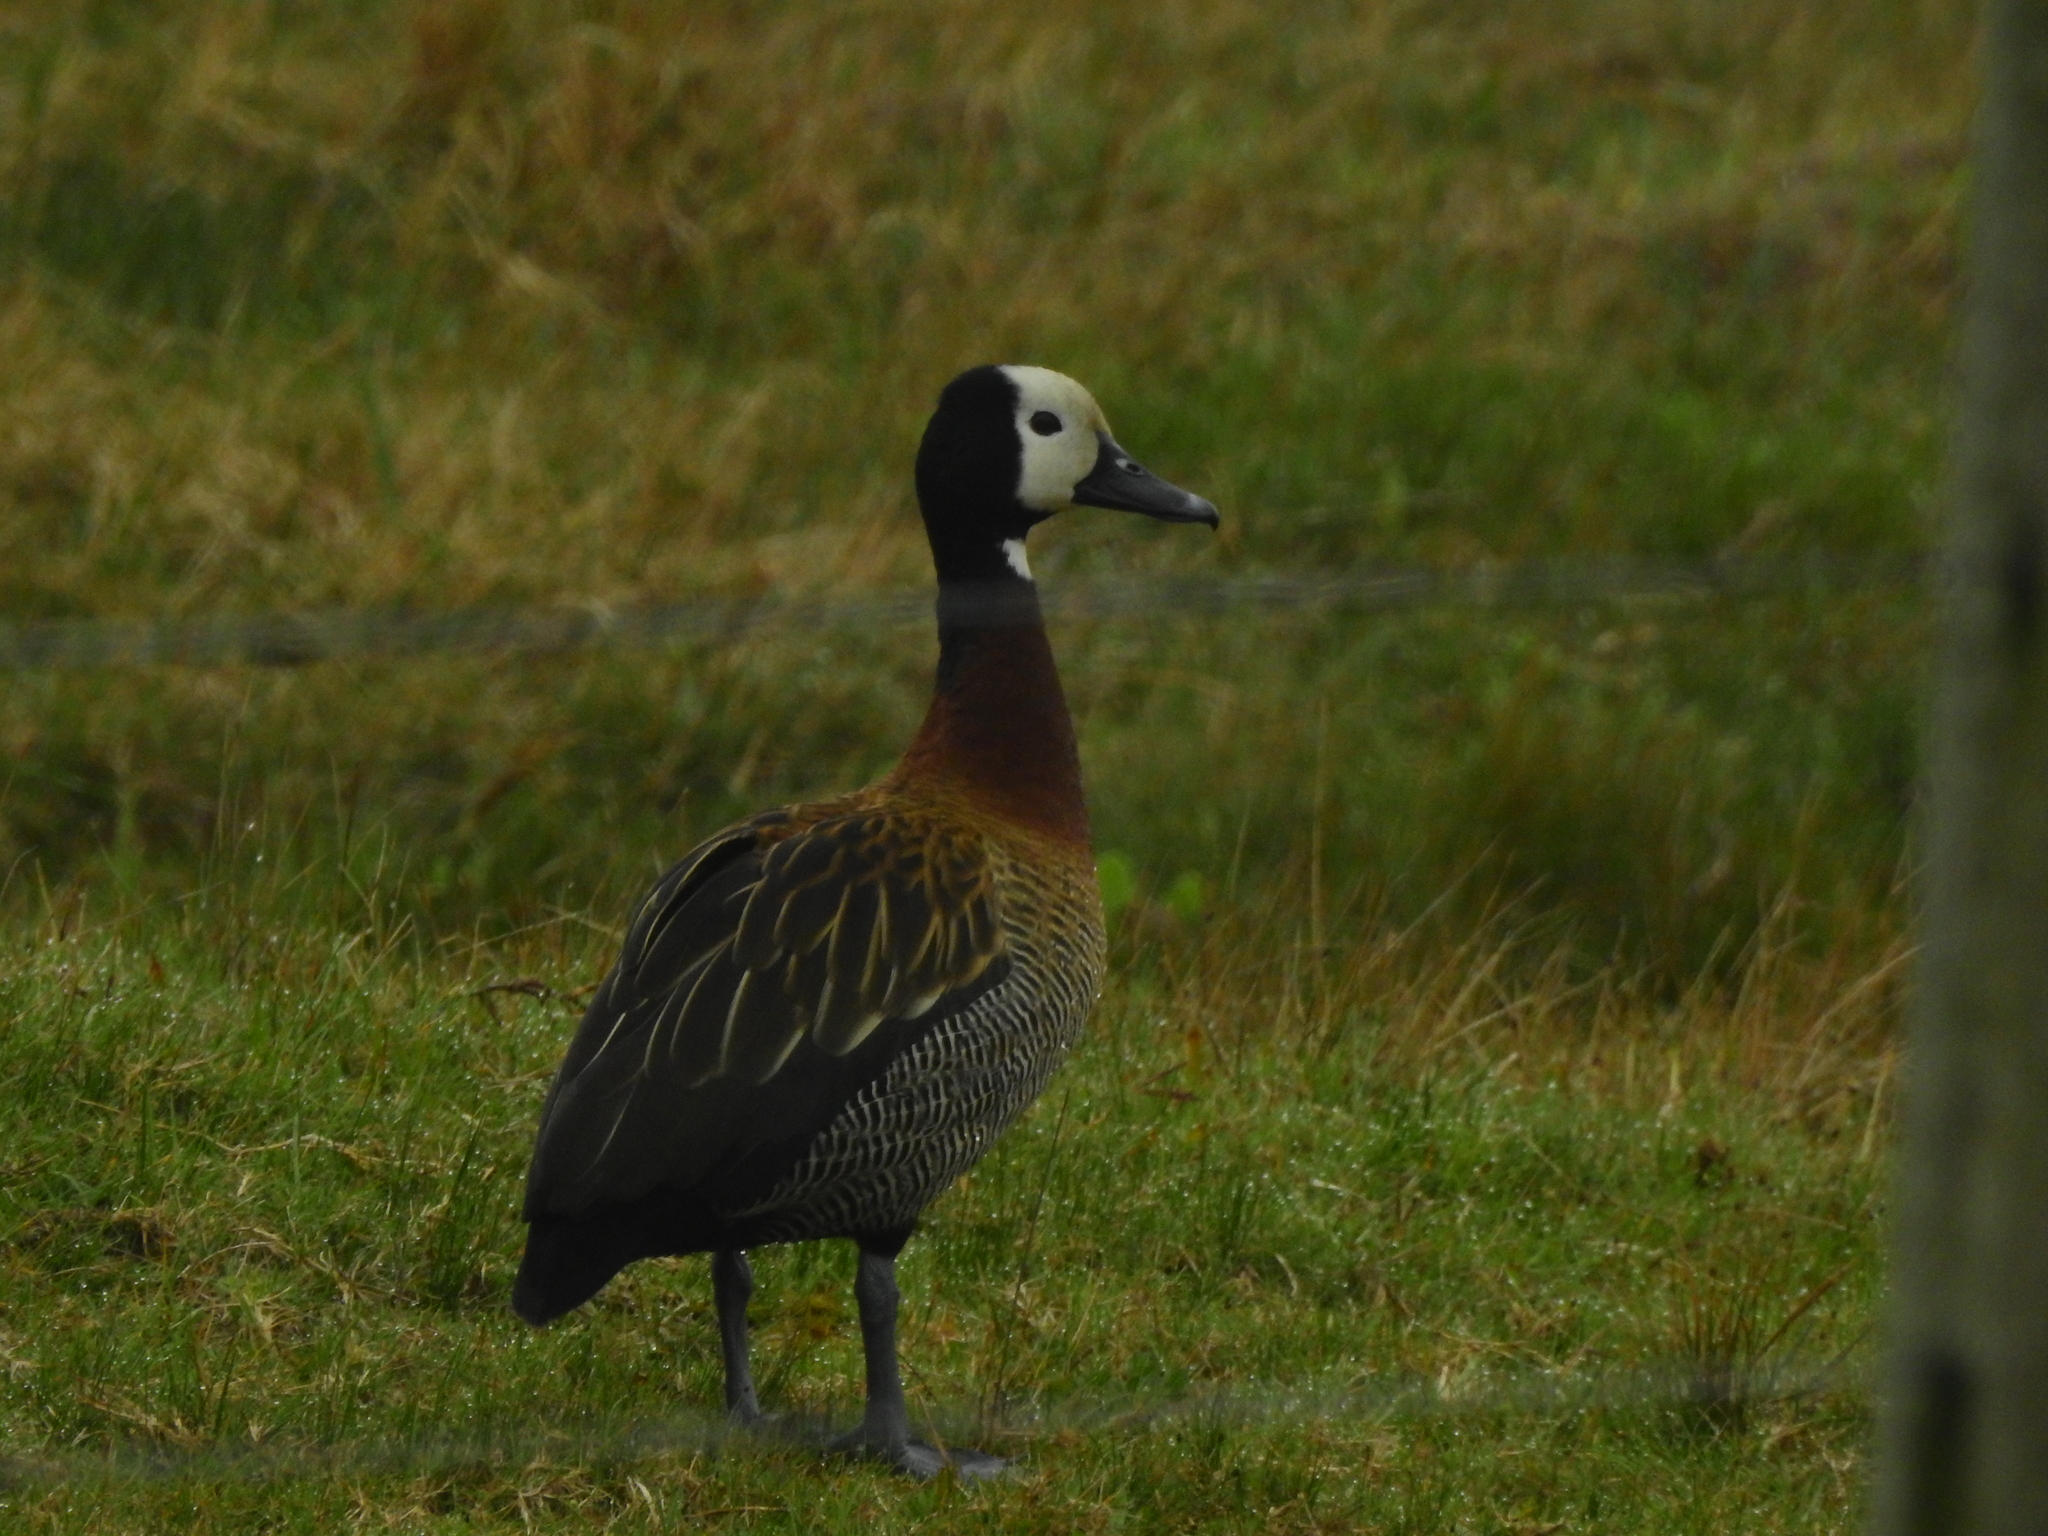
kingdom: Animalia
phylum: Chordata
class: Aves
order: Anseriformes
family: Anatidae
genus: Dendrocygna
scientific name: Dendrocygna viduata
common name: White-faced whistling duck
